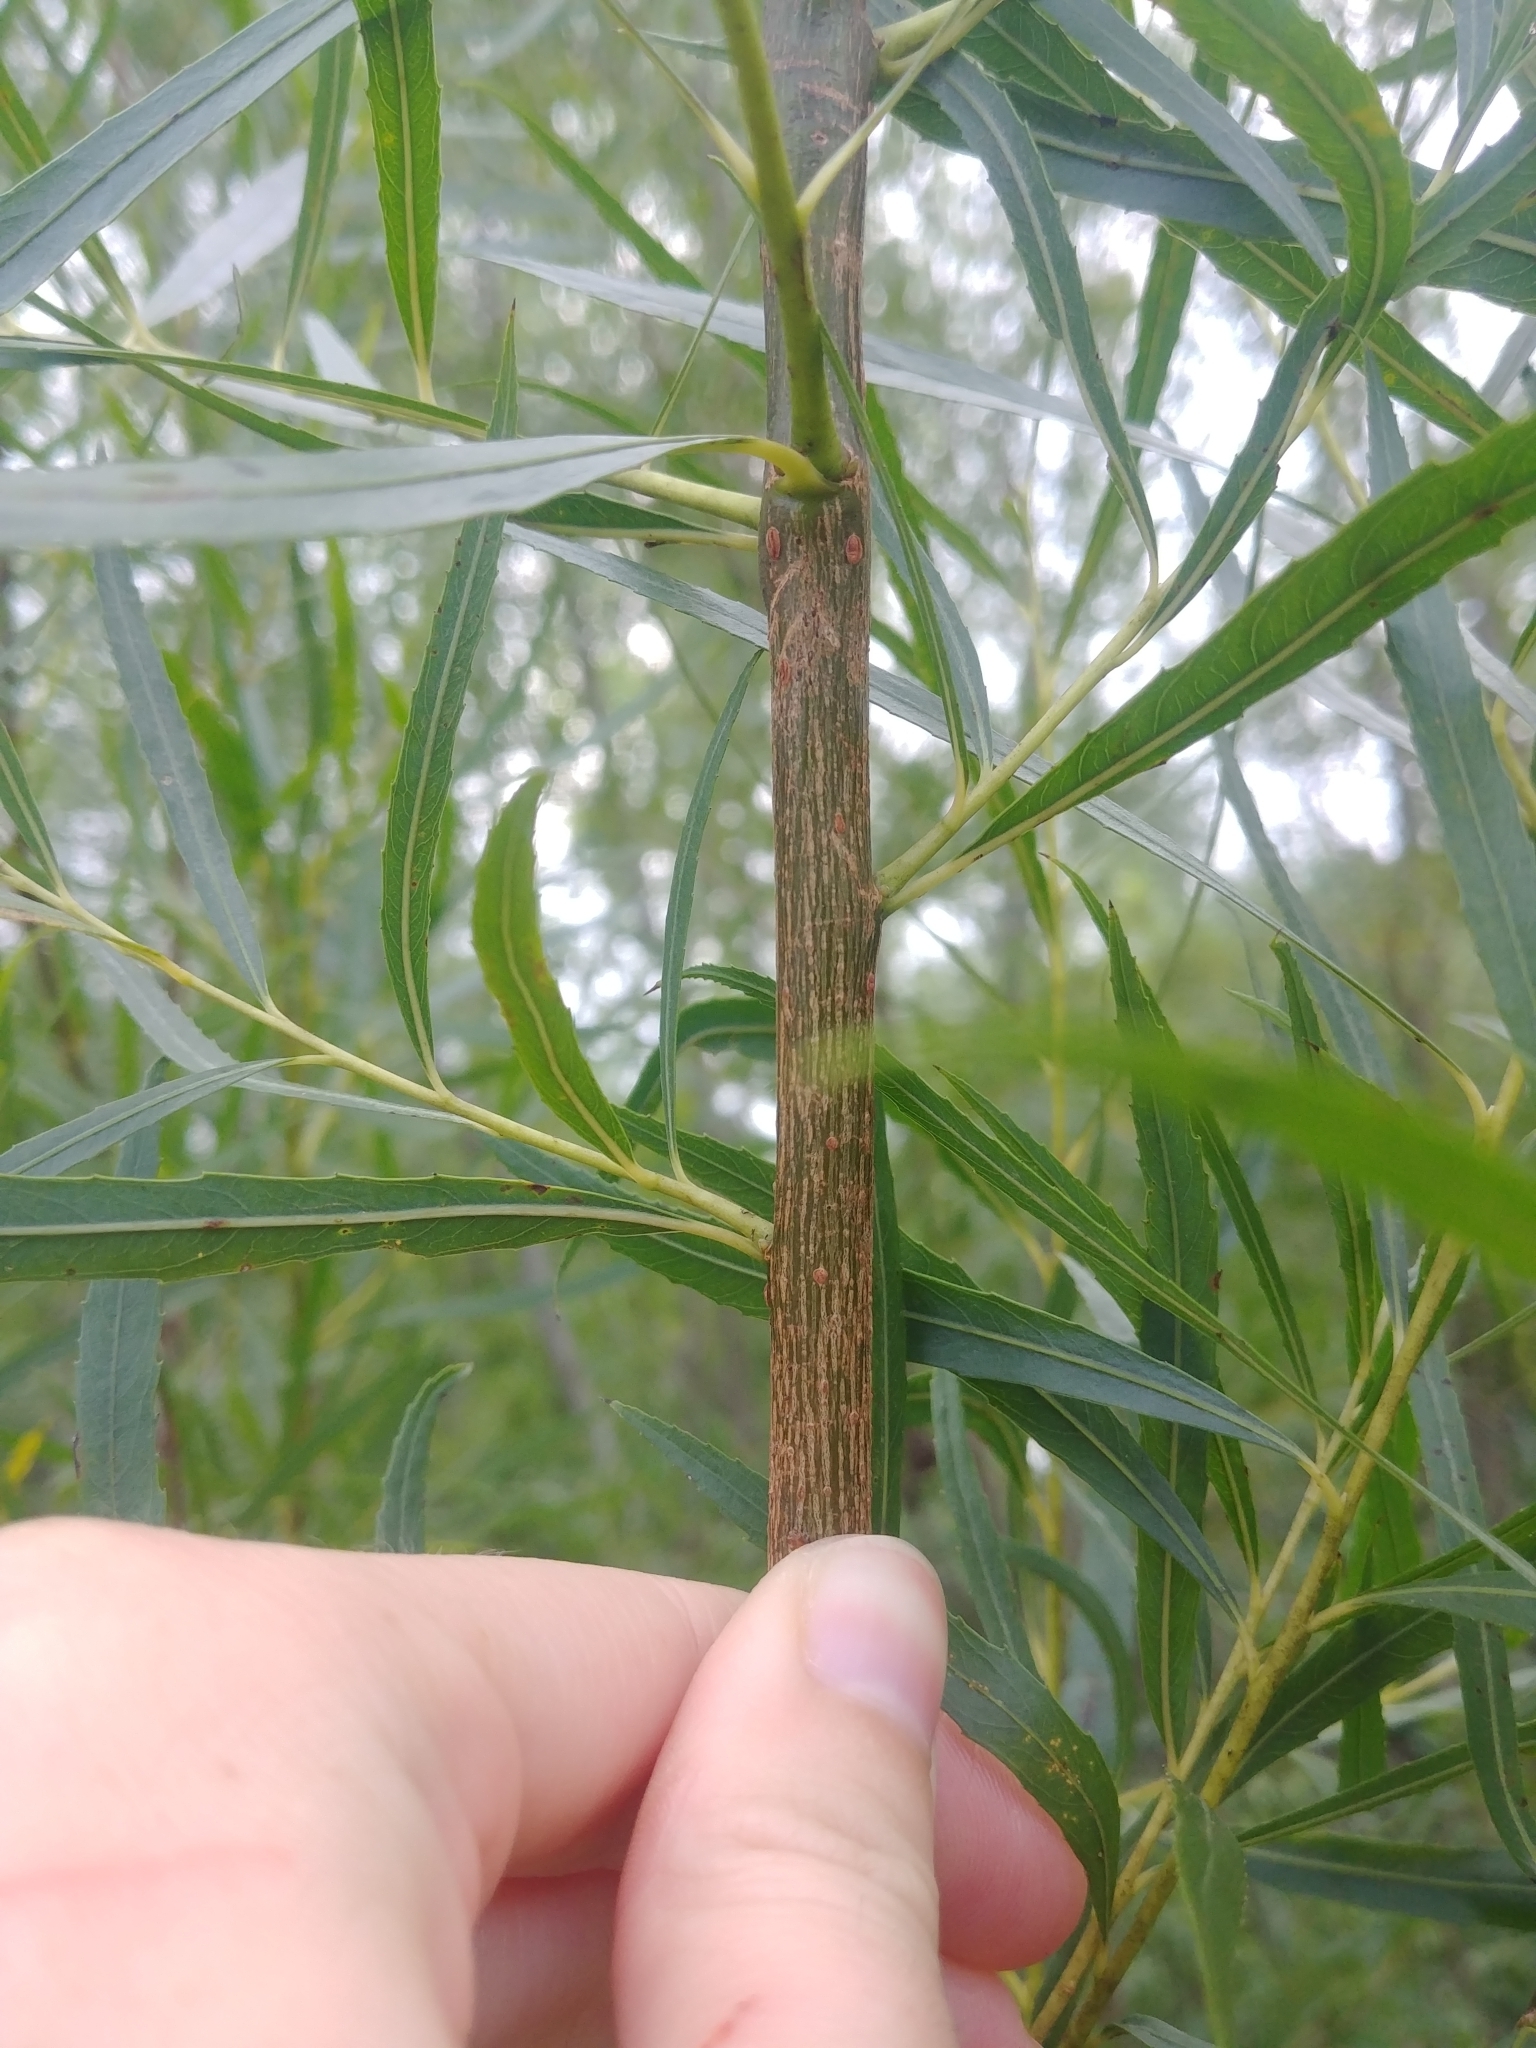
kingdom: Plantae
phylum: Tracheophyta
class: Magnoliopsida
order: Malpighiales
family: Salicaceae
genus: Salix
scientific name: Salix interior
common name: Sandbar willow
